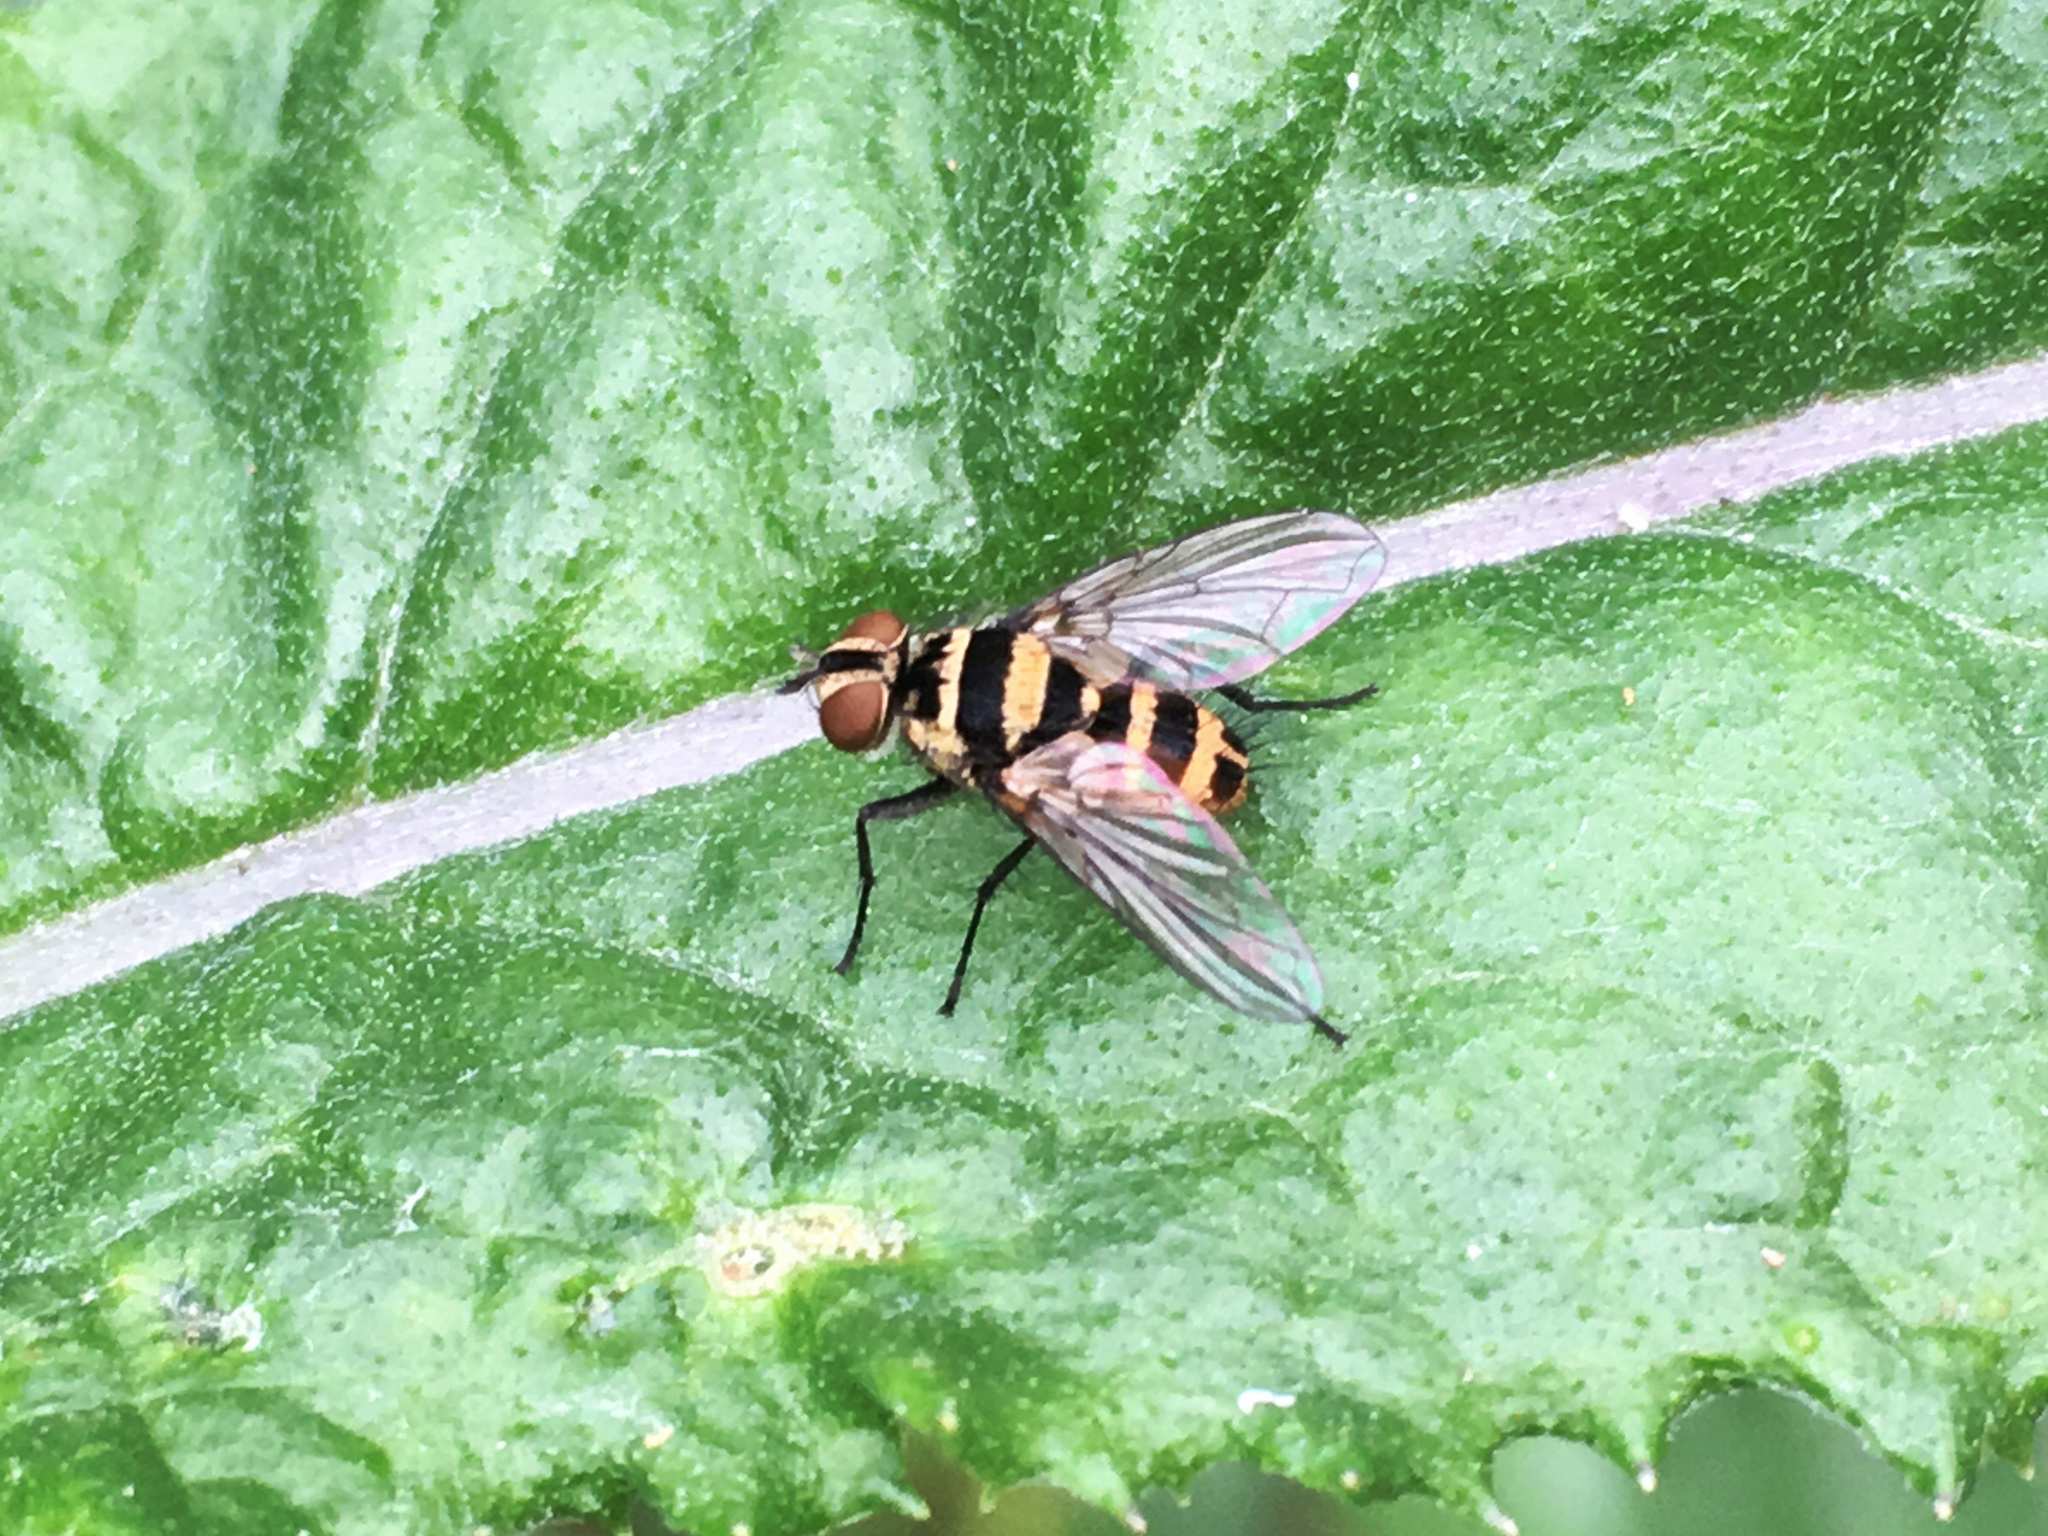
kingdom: Animalia
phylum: Arthropoda
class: Insecta
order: Diptera
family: Tachinidae
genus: Trigonospila
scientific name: Trigonospila brevifacies
